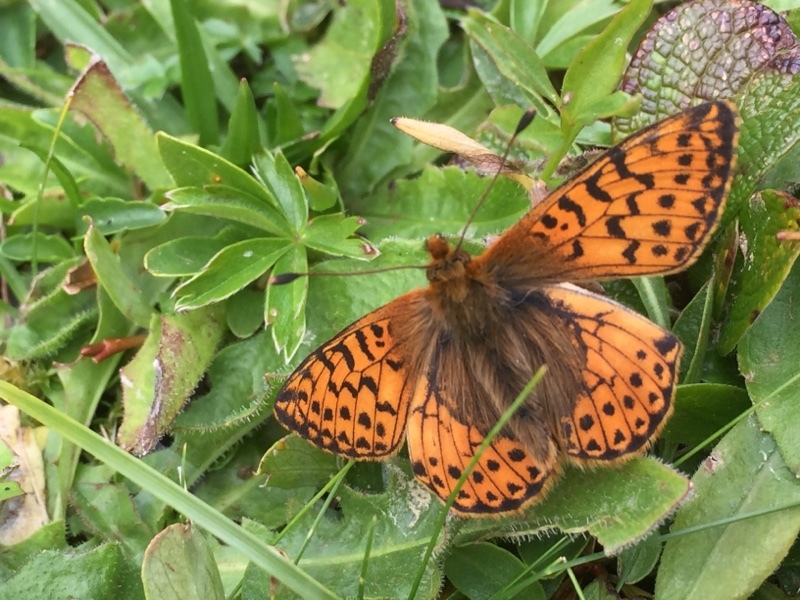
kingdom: Animalia
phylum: Arthropoda
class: Insecta
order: Lepidoptera
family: Nymphalidae
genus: Boloria
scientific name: Boloria pales
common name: Shepherd's fritillary
